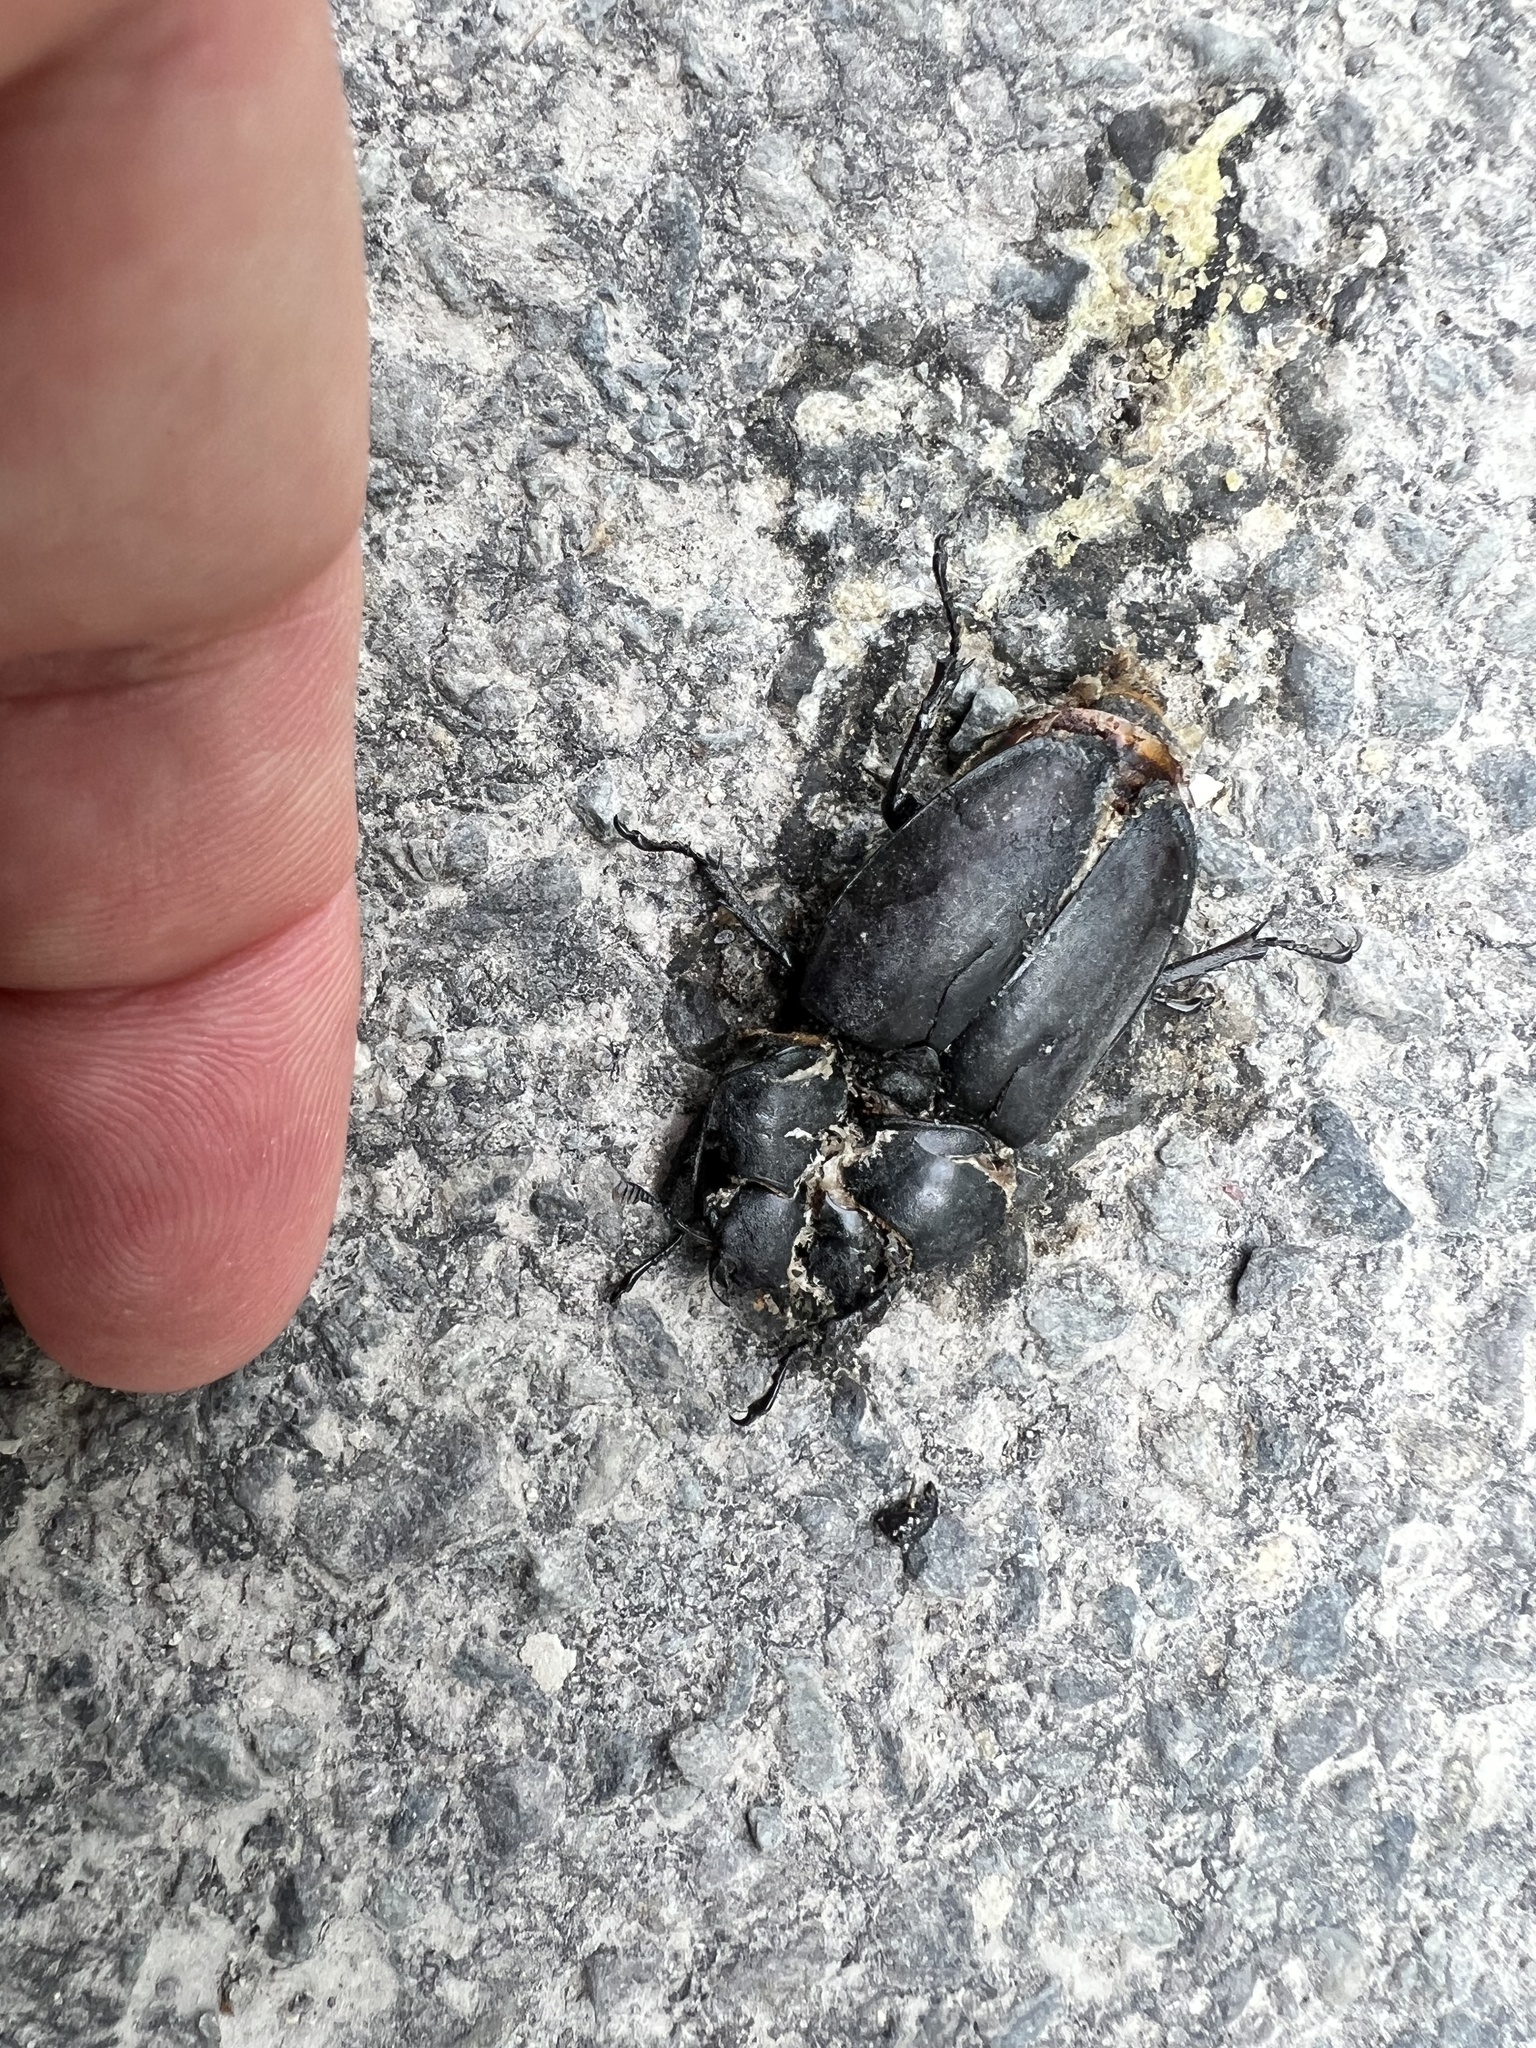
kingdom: Animalia
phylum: Arthropoda
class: Insecta
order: Coleoptera
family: Lucanidae
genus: Lucanus
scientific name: Lucanus cervus
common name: Stag beetle
